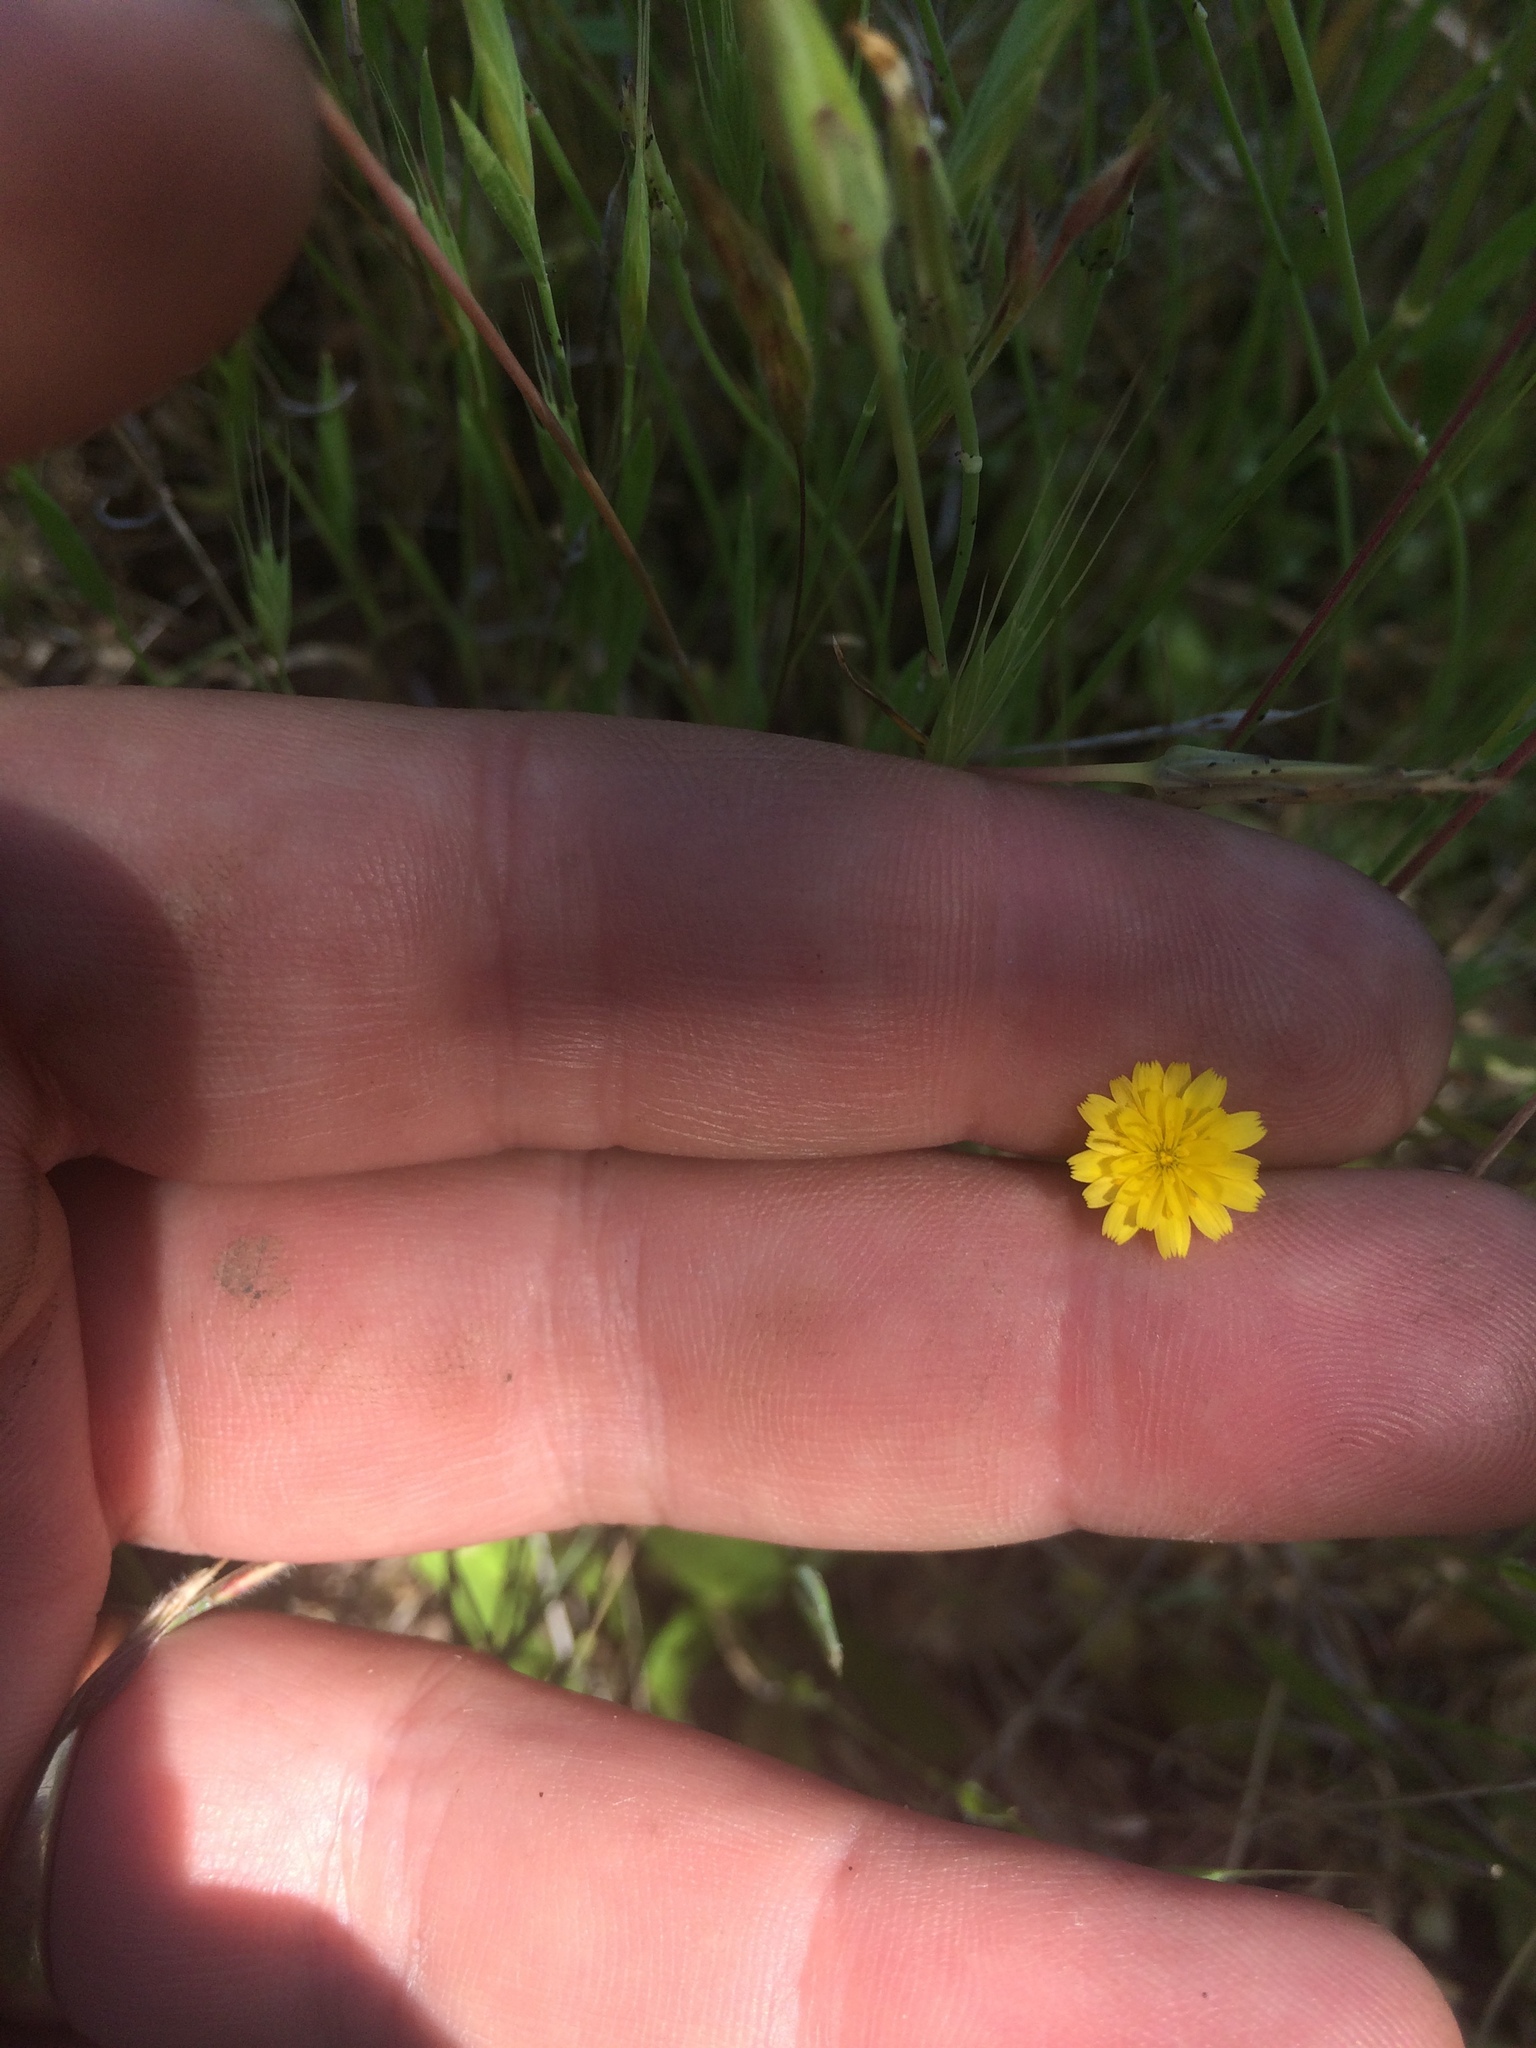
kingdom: Animalia
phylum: Arthropoda
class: Insecta
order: Hymenoptera
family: Cynipidae
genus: Phanacis
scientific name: Phanacis hypochoeridis
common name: Gall wasp
